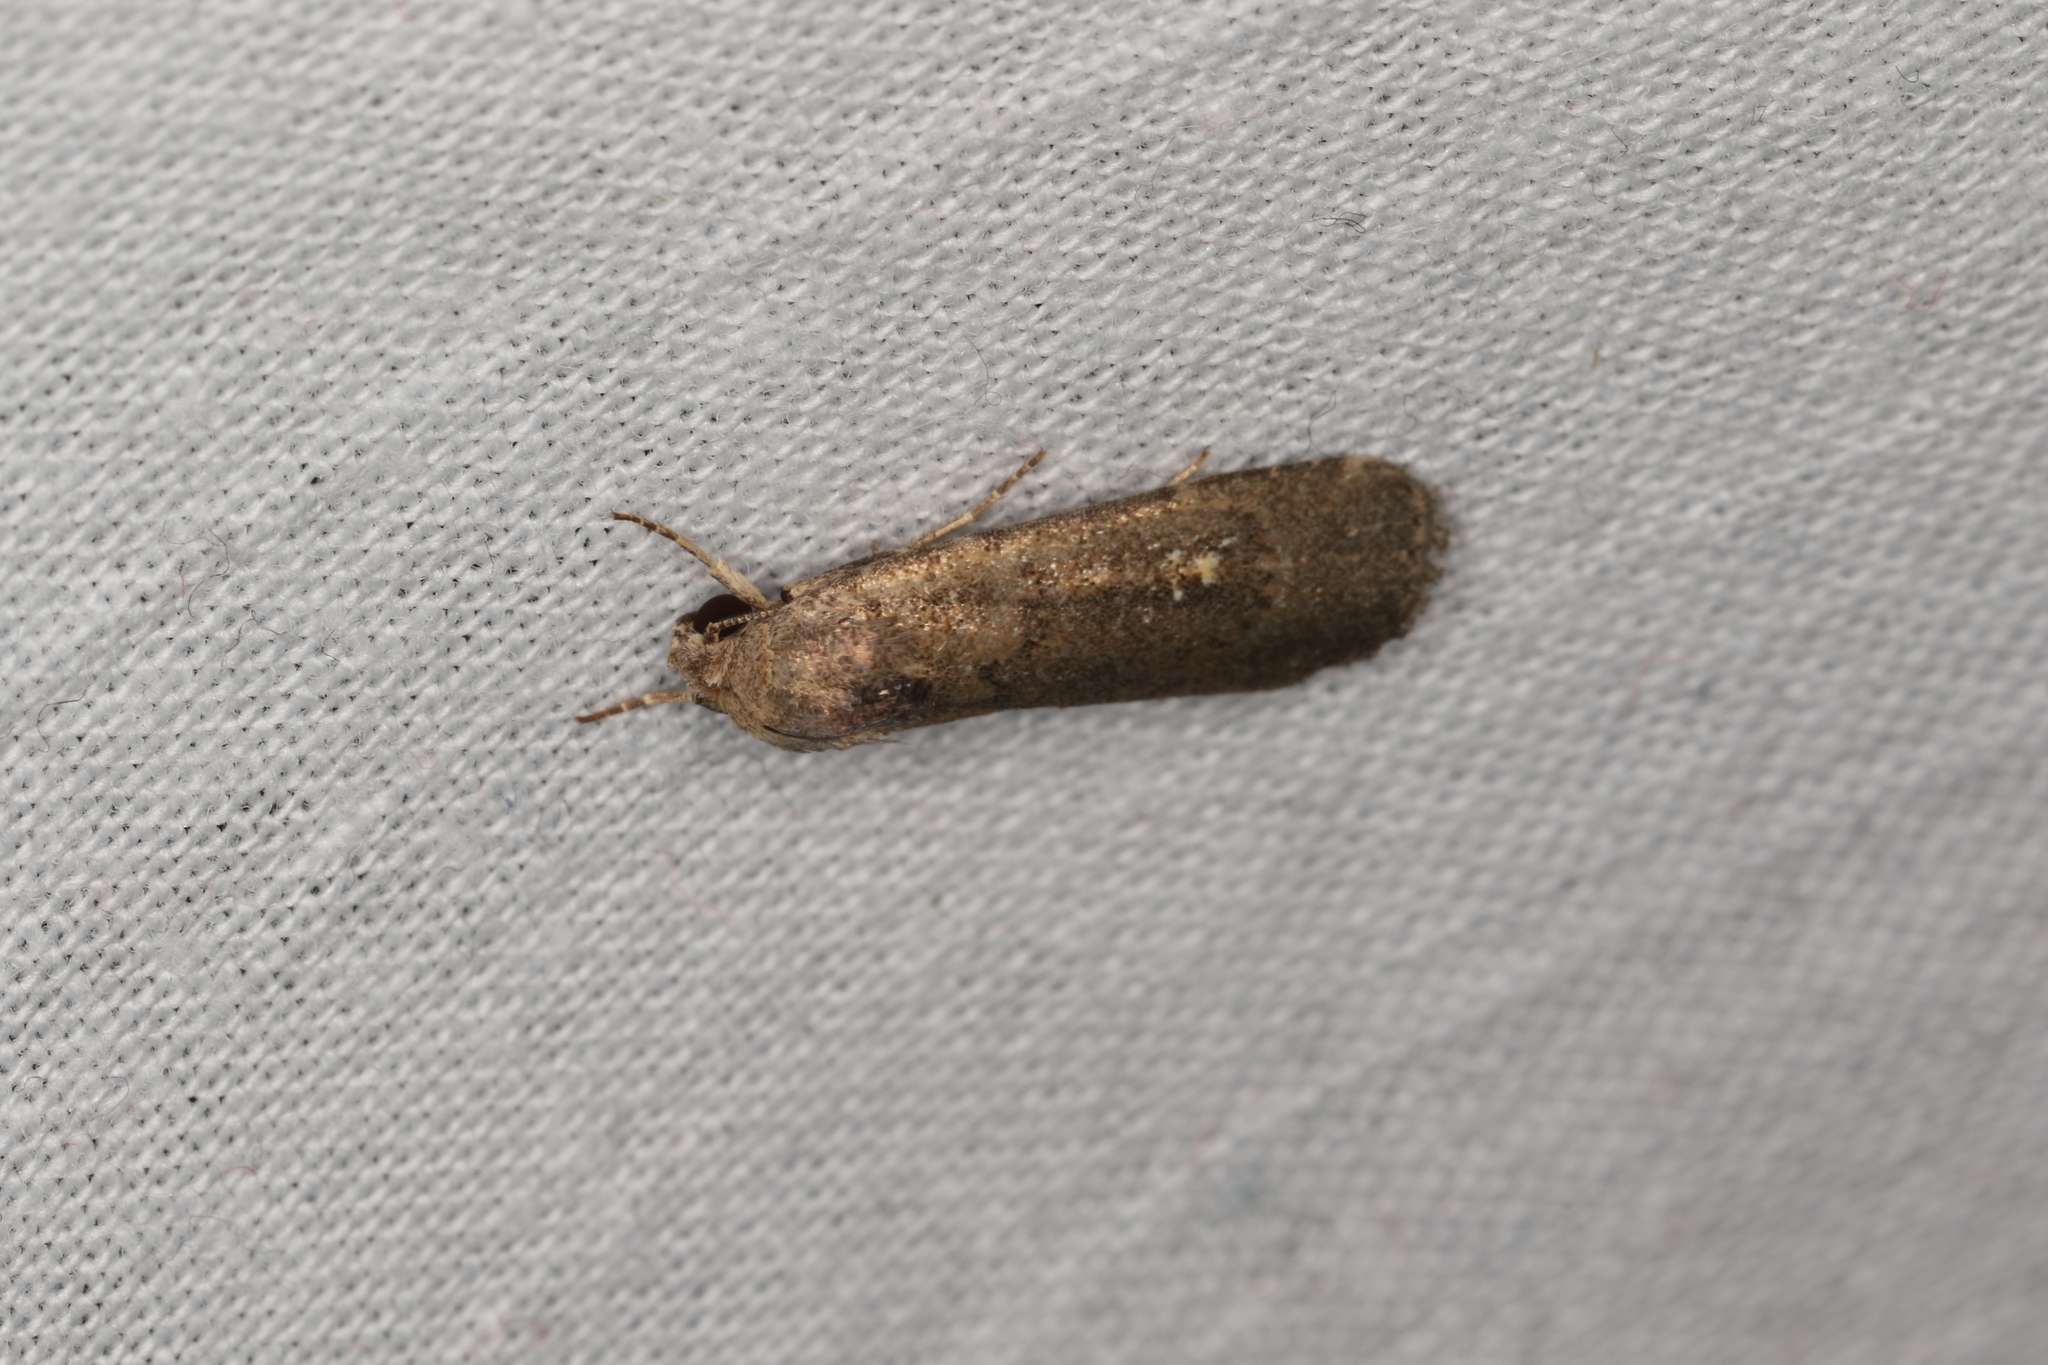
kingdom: Animalia
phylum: Arthropoda
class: Insecta
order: Lepidoptera
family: Noctuidae
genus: Athetis
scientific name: Athetis tenuis
